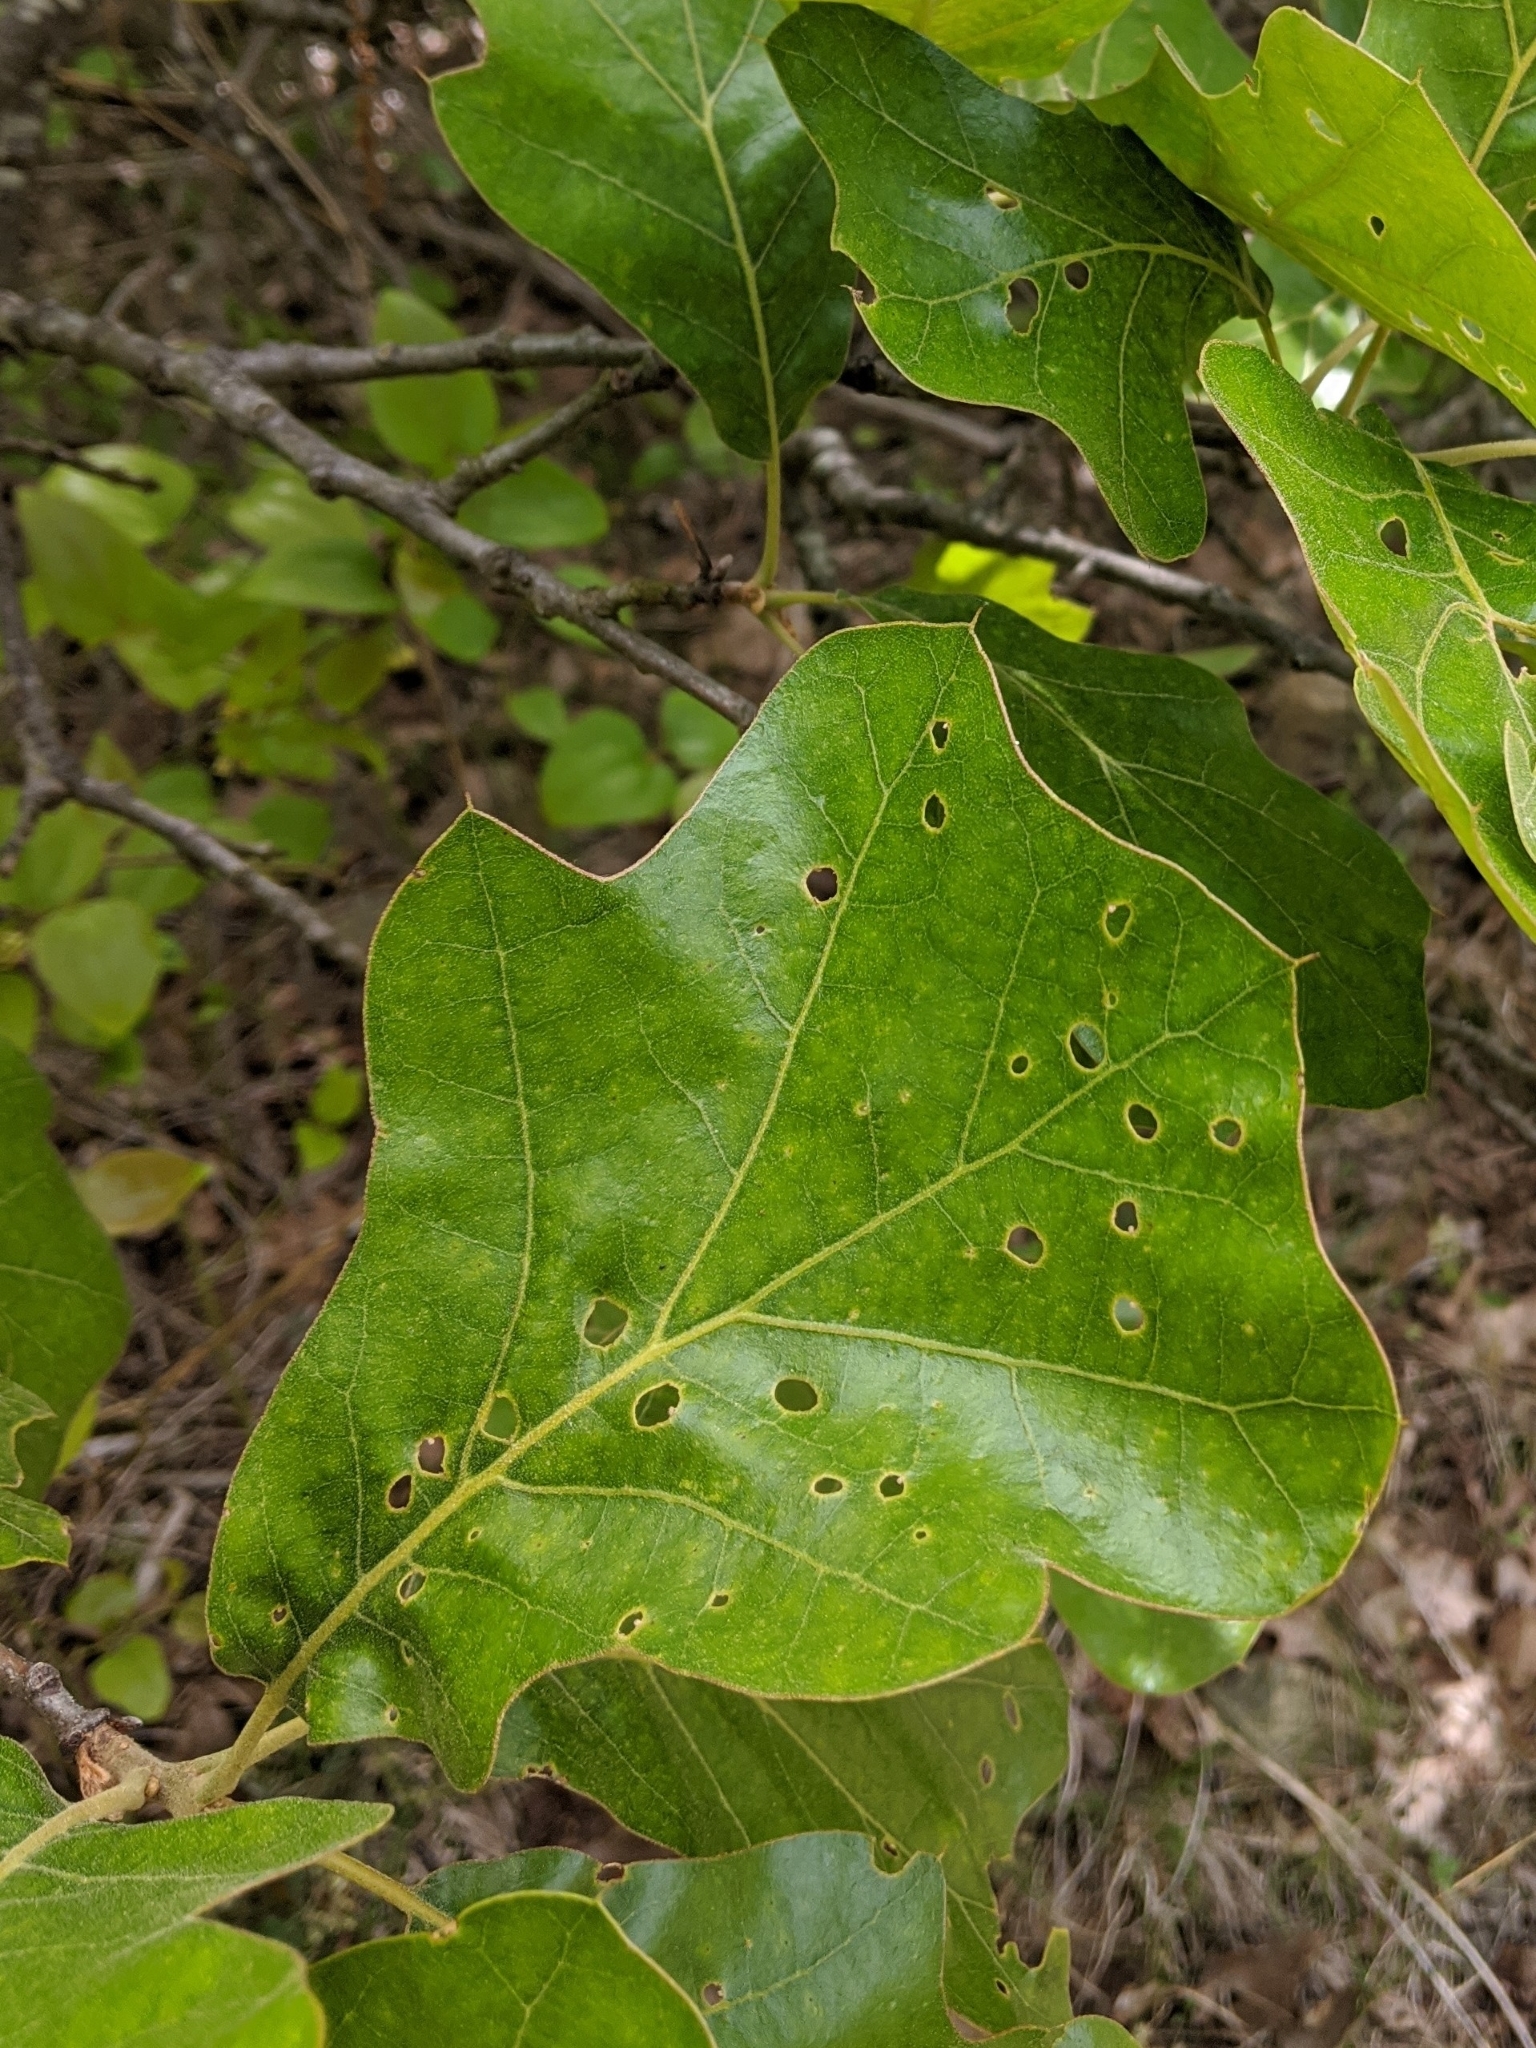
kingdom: Plantae
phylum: Tracheophyta
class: Magnoliopsida
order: Fagales
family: Fagaceae
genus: Quercus
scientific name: Quercus marilandica
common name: Blackjack oak
